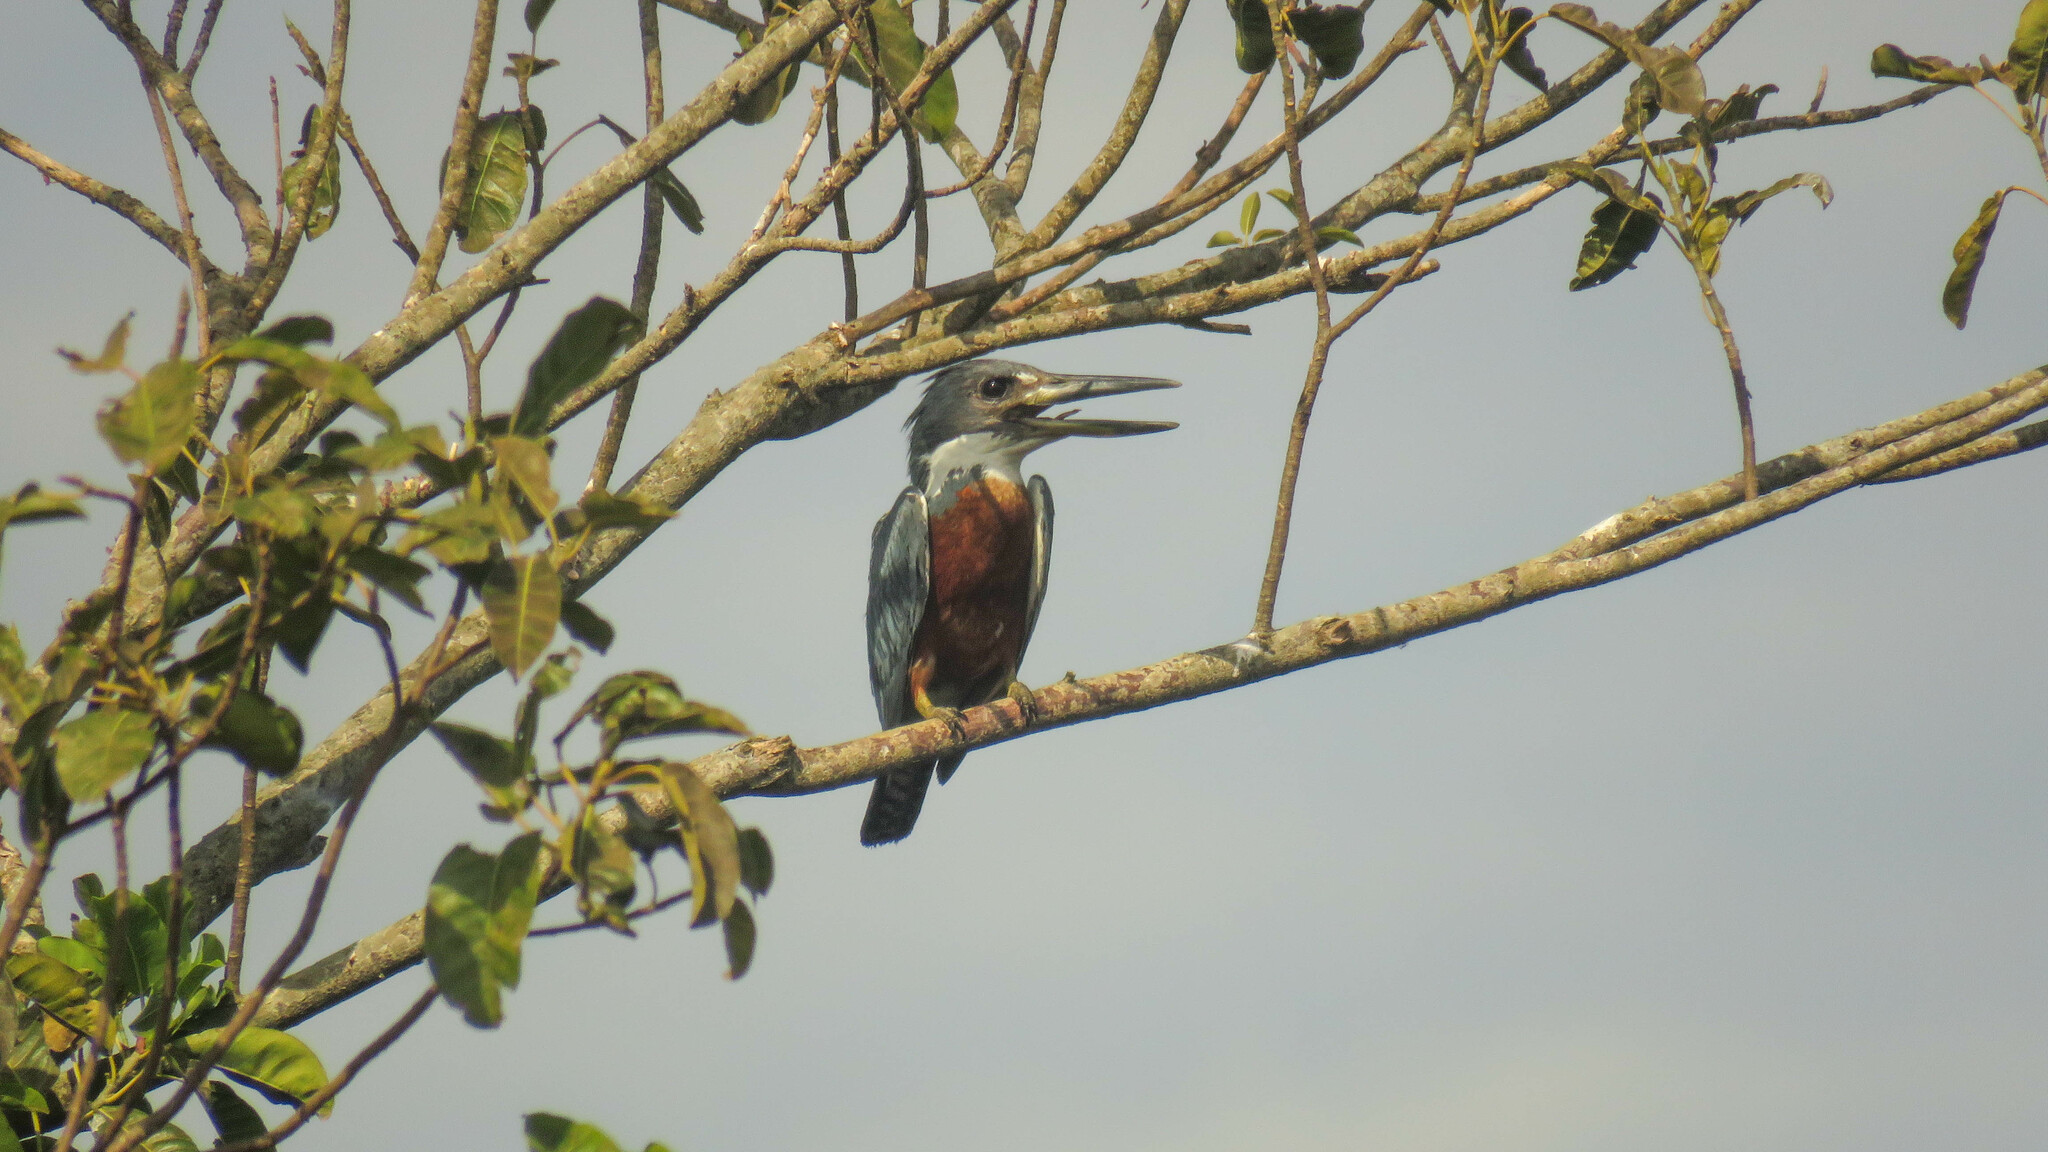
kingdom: Animalia
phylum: Chordata
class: Aves
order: Coraciiformes
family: Alcedinidae
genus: Megaceryle
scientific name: Megaceryle torquata
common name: Ringed kingfisher
